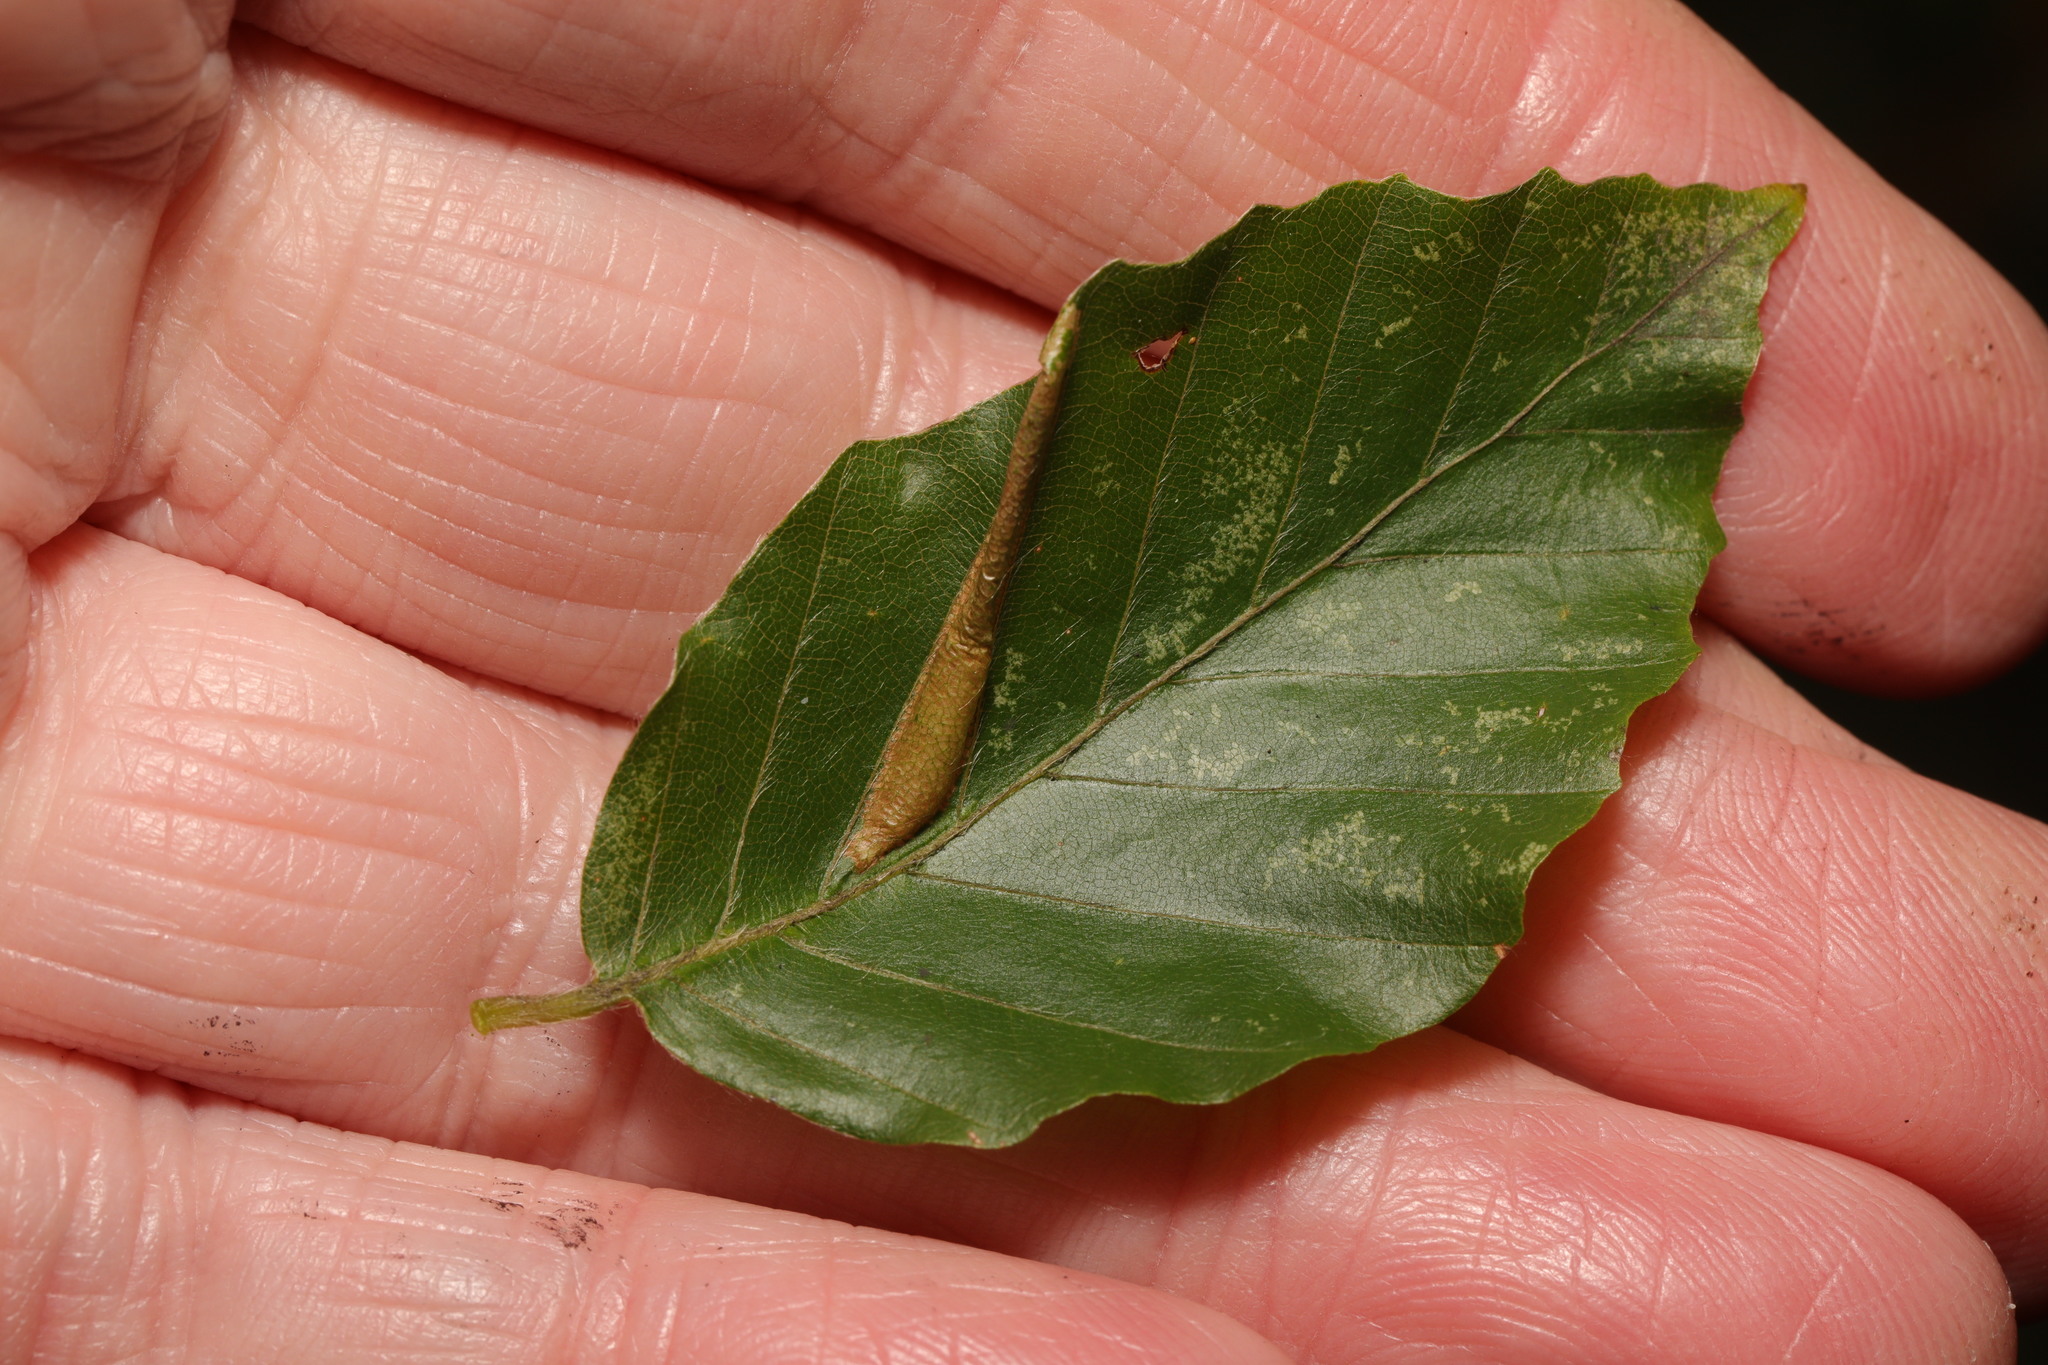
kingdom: Animalia
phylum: Arthropoda
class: Insecta
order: Lepidoptera
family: Gracillariidae
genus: Phyllonorycter
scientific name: Phyllonorycter maestingella
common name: Beech midget
